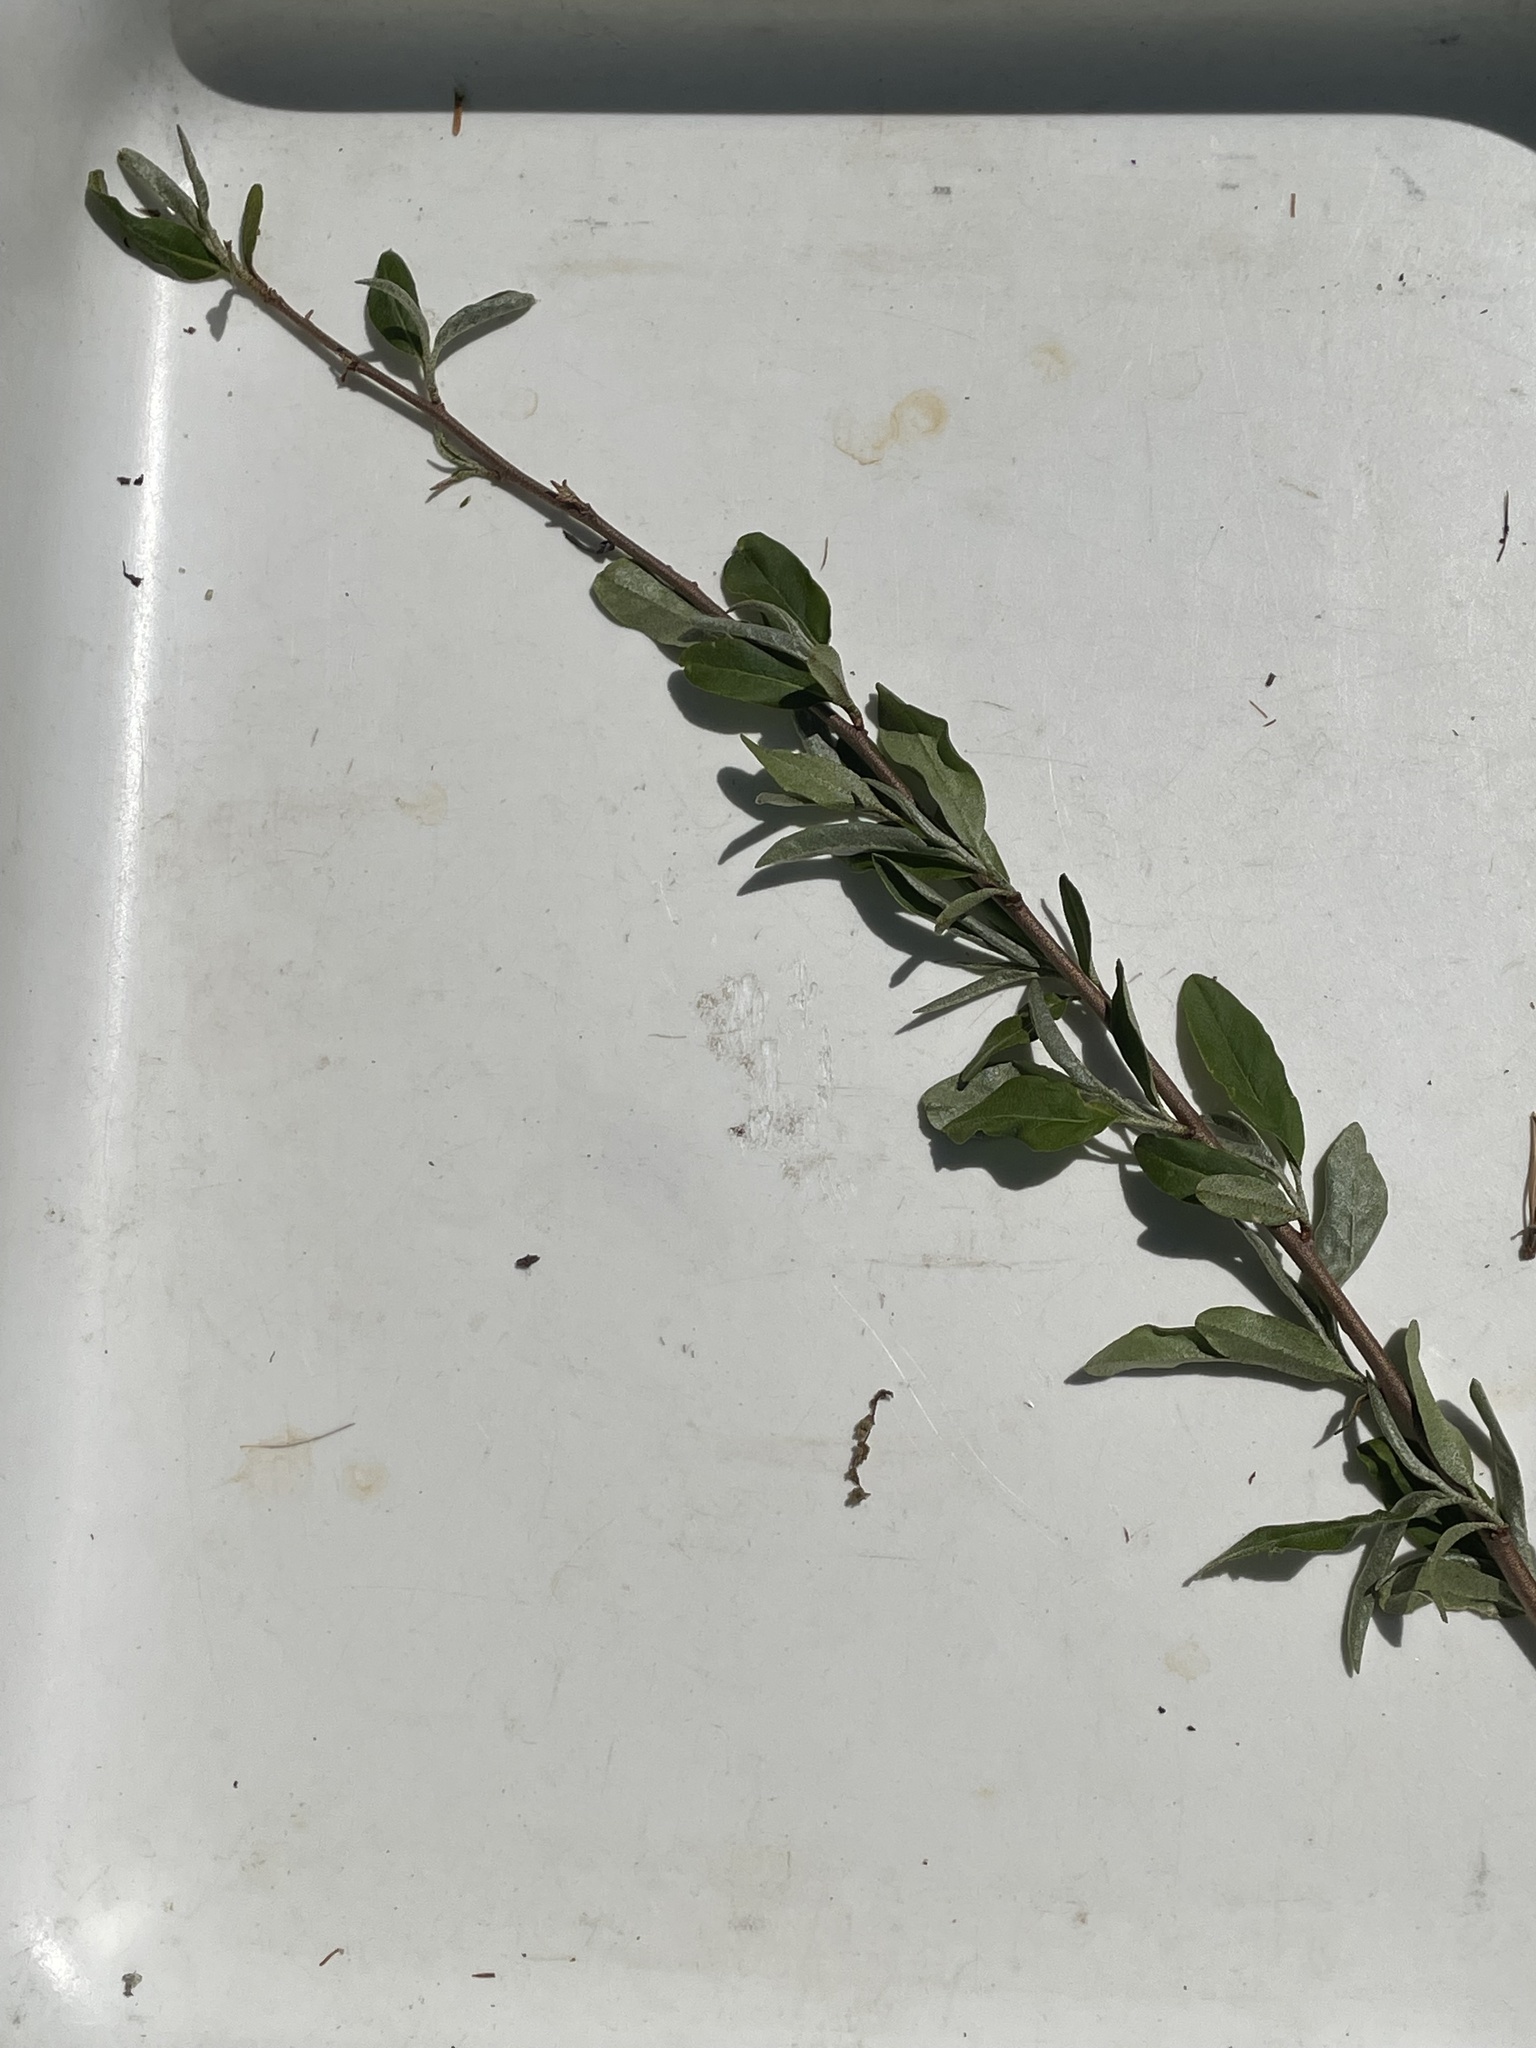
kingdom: Plantae
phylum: Tracheophyta
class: Magnoliopsida
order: Rosales
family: Elaeagnaceae
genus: Elaeagnus
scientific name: Elaeagnus umbellata
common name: Autumn olive
